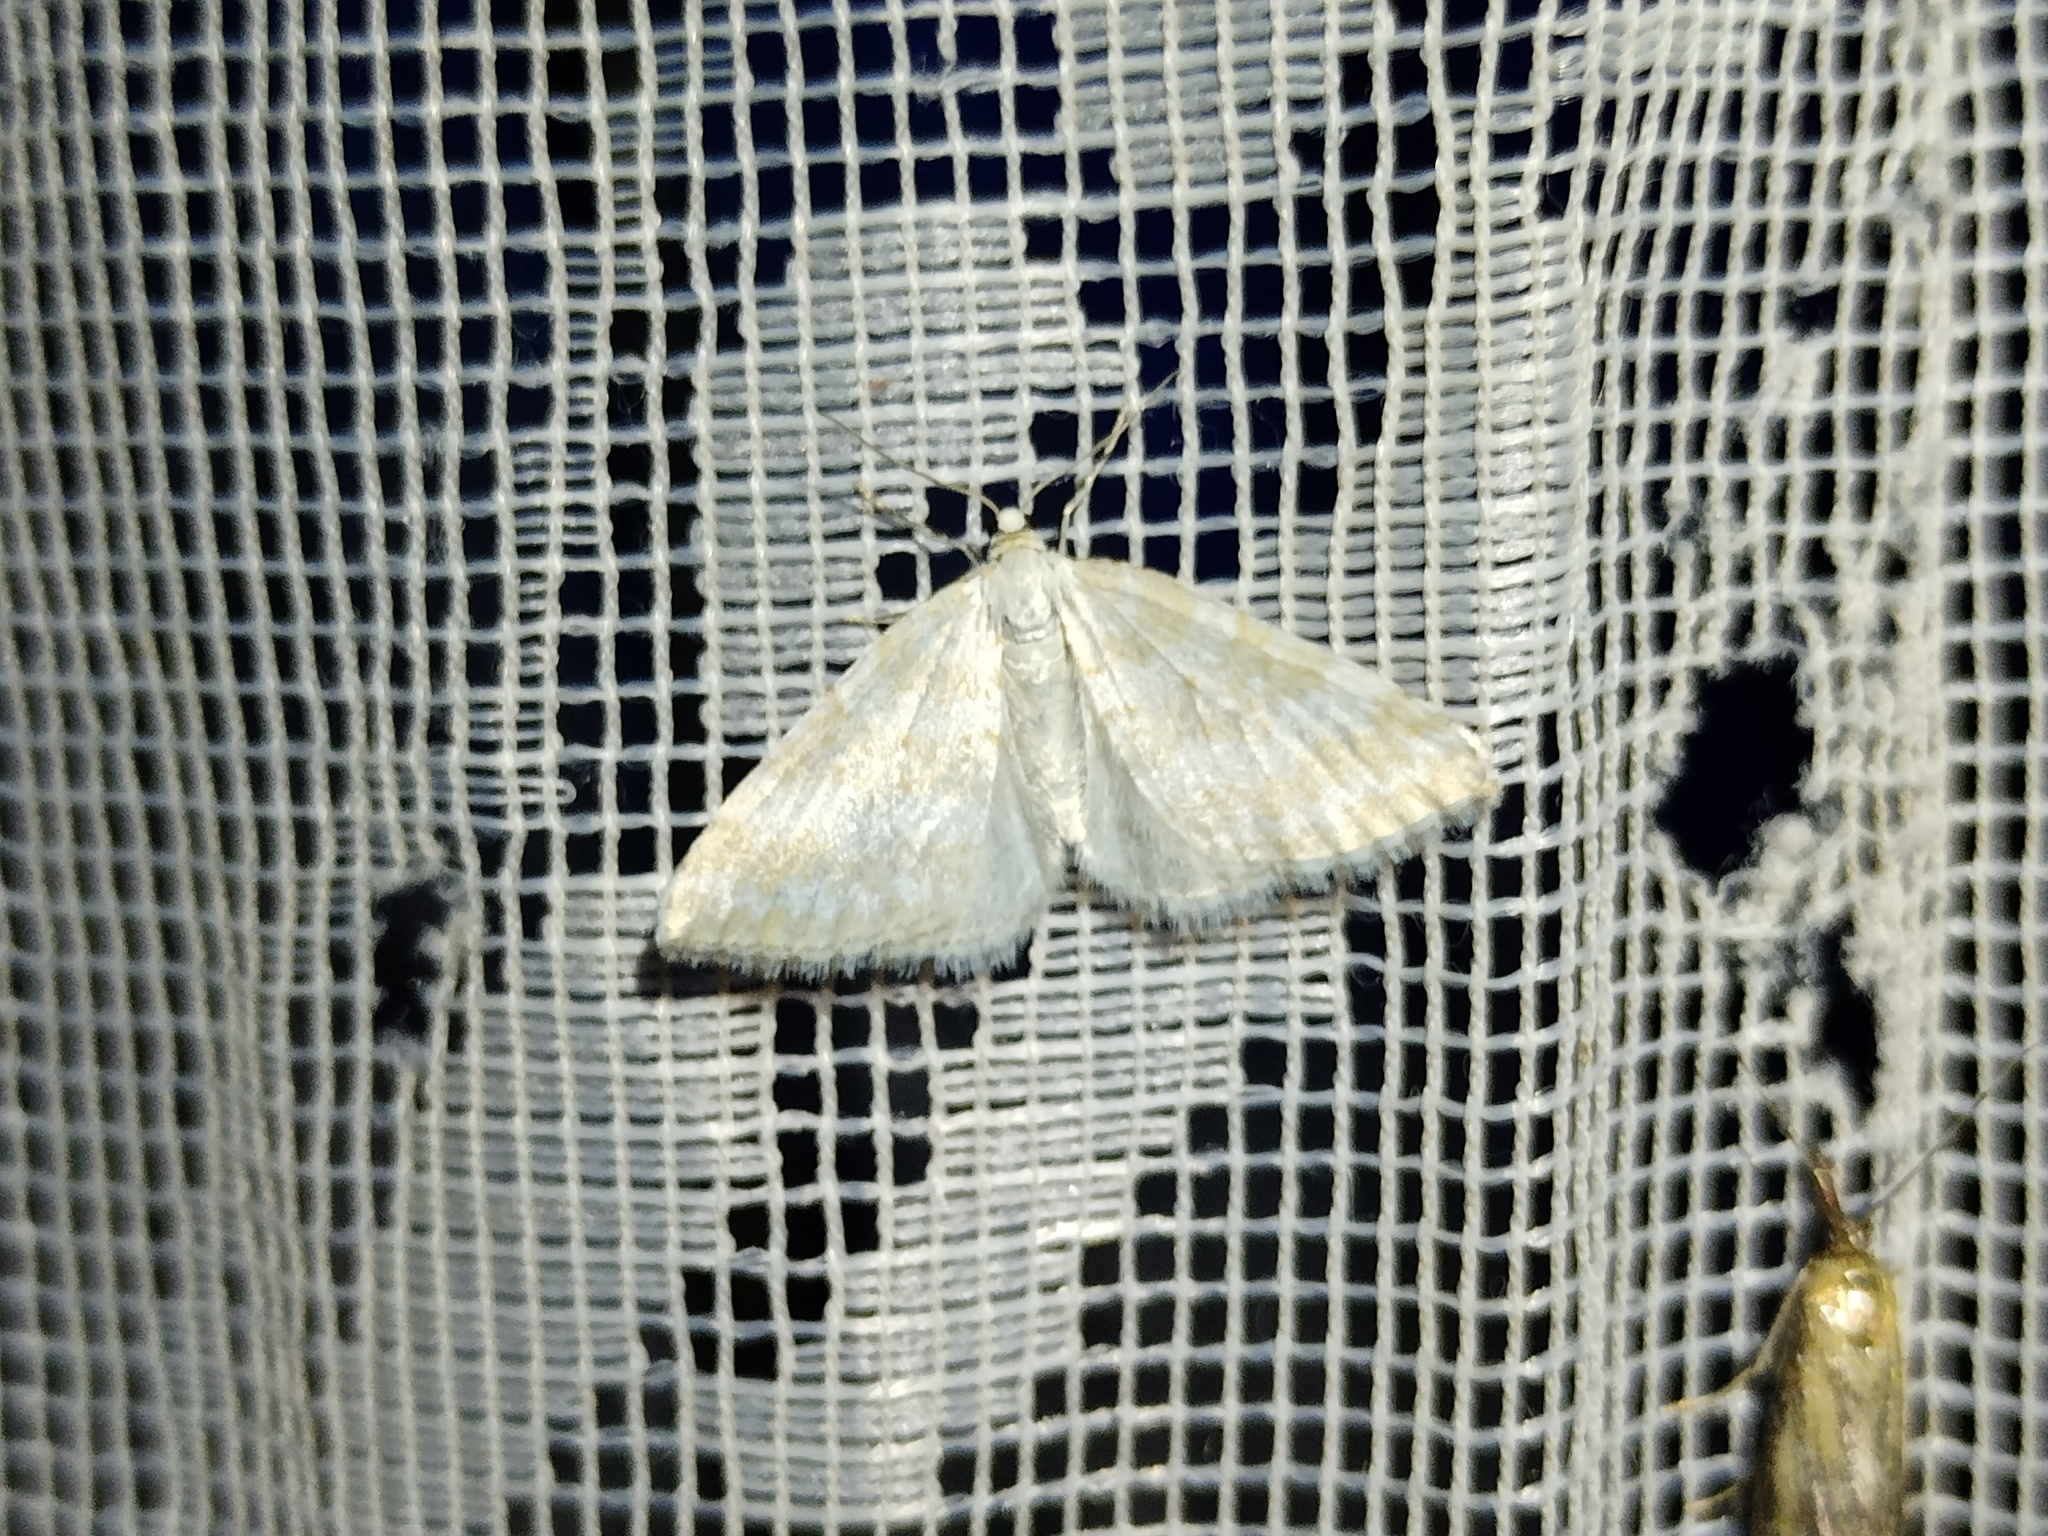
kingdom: Animalia
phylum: Arthropoda
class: Insecta
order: Lepidoptera
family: Geometridae
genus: Perizoma
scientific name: Perizoma albulata
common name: Grass rivulet
